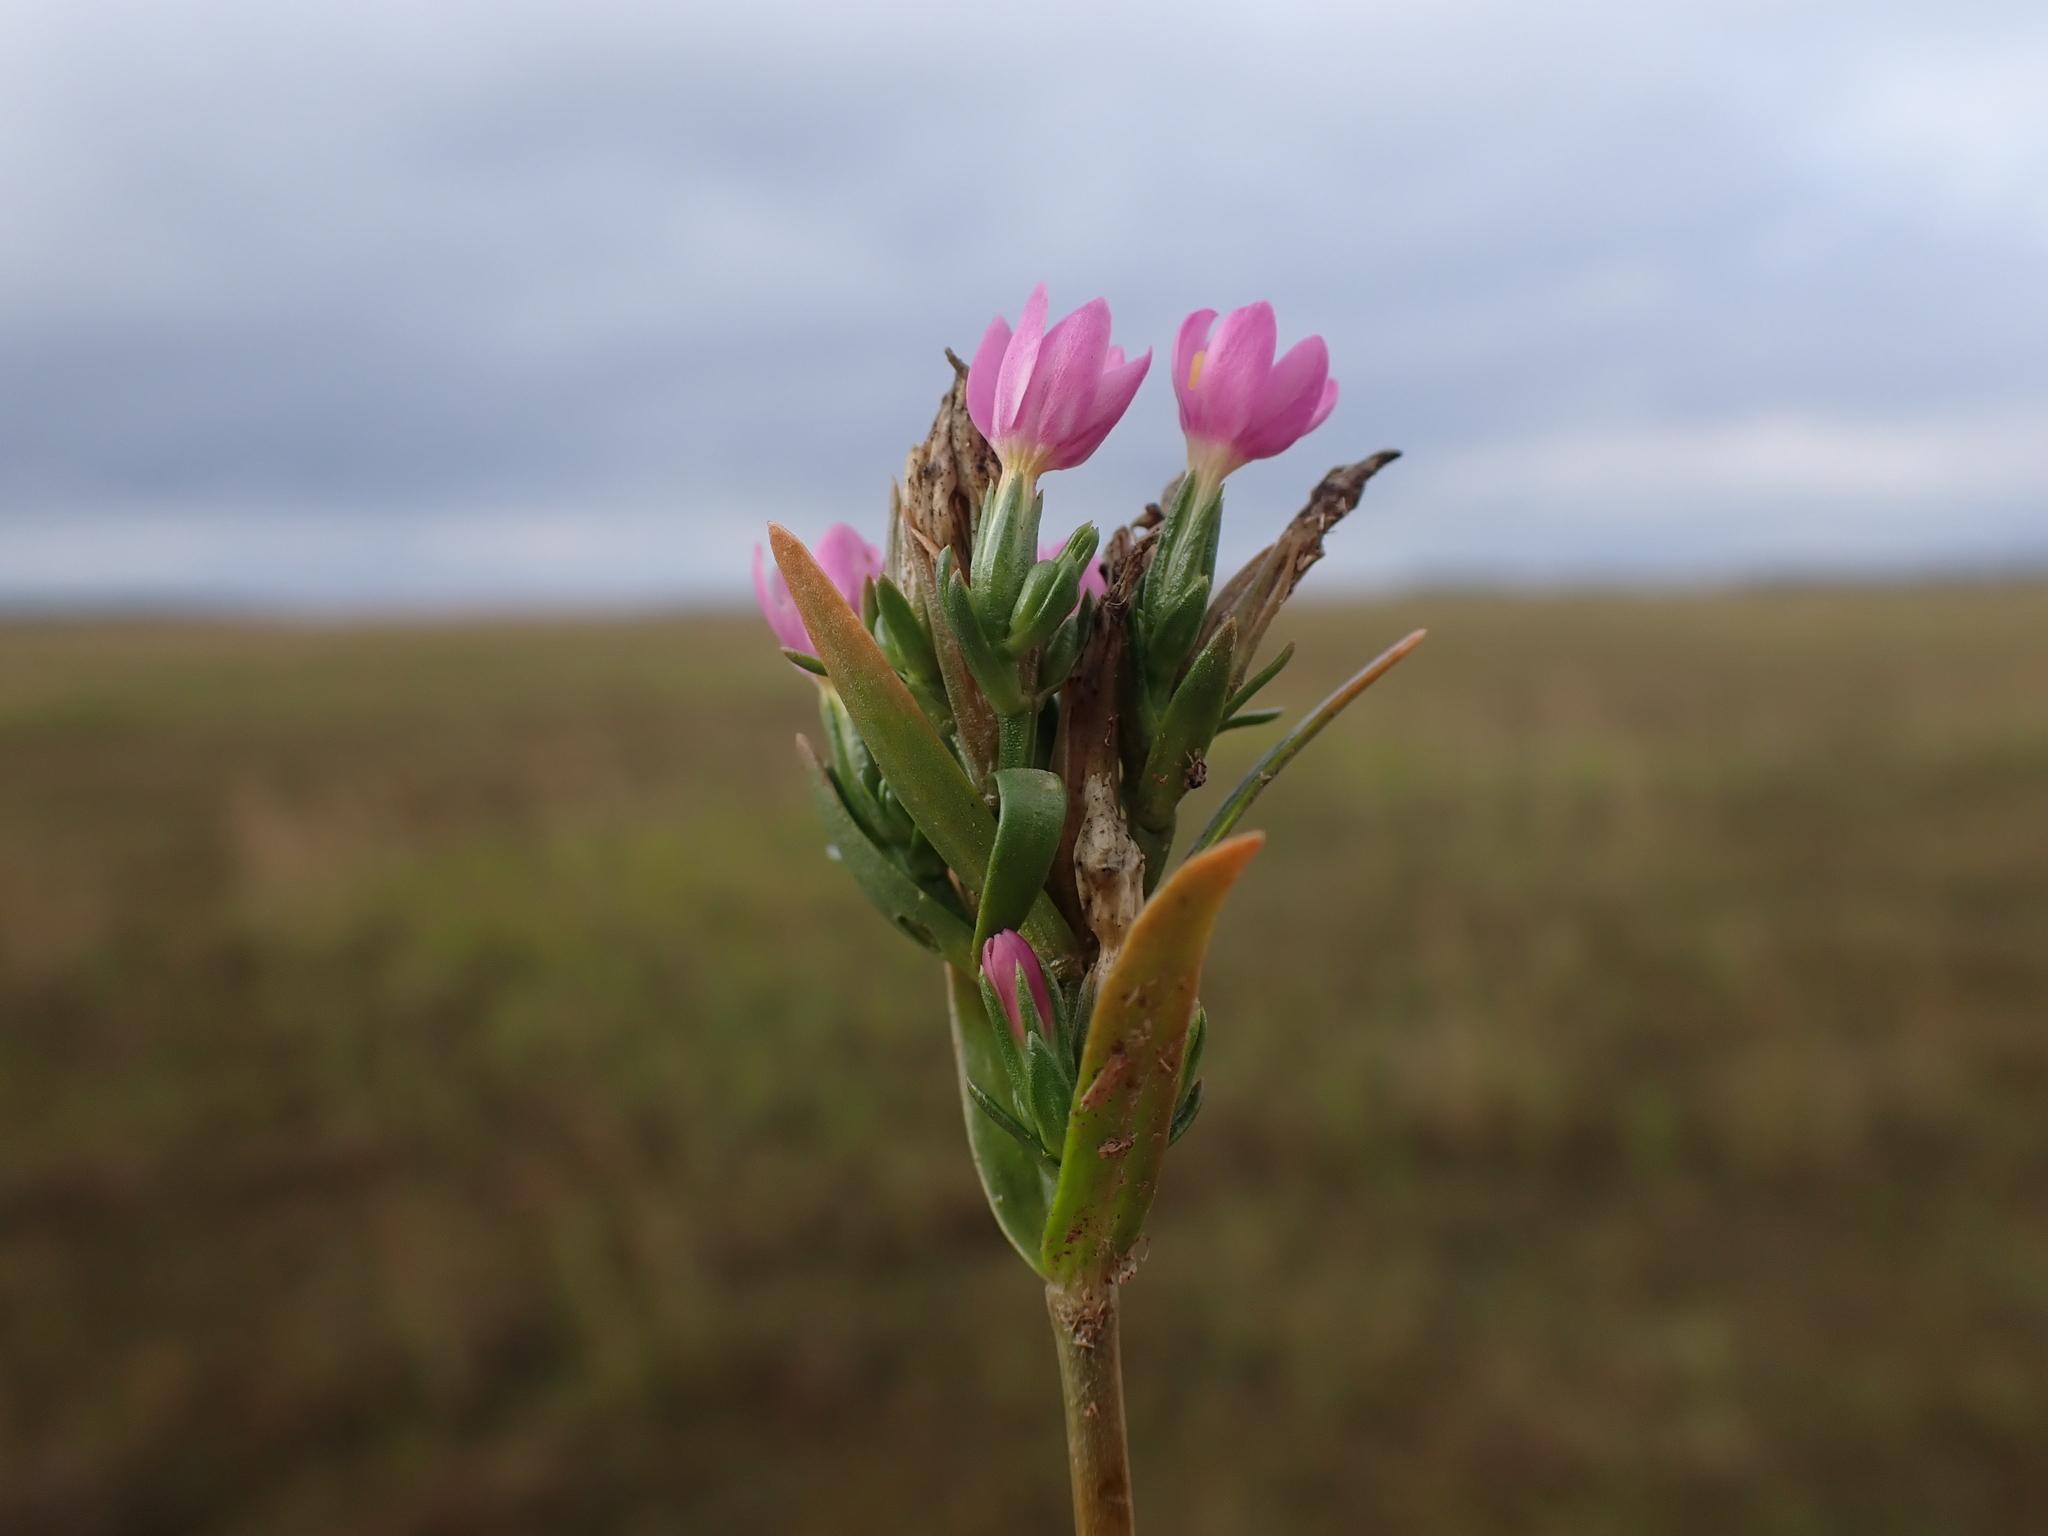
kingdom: Plantae
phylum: Tracheophyta
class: Magnoliopsida
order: Gentianales
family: Gentianaceae
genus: Centaurium
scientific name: Centaurium littorale
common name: Seaside centaury
